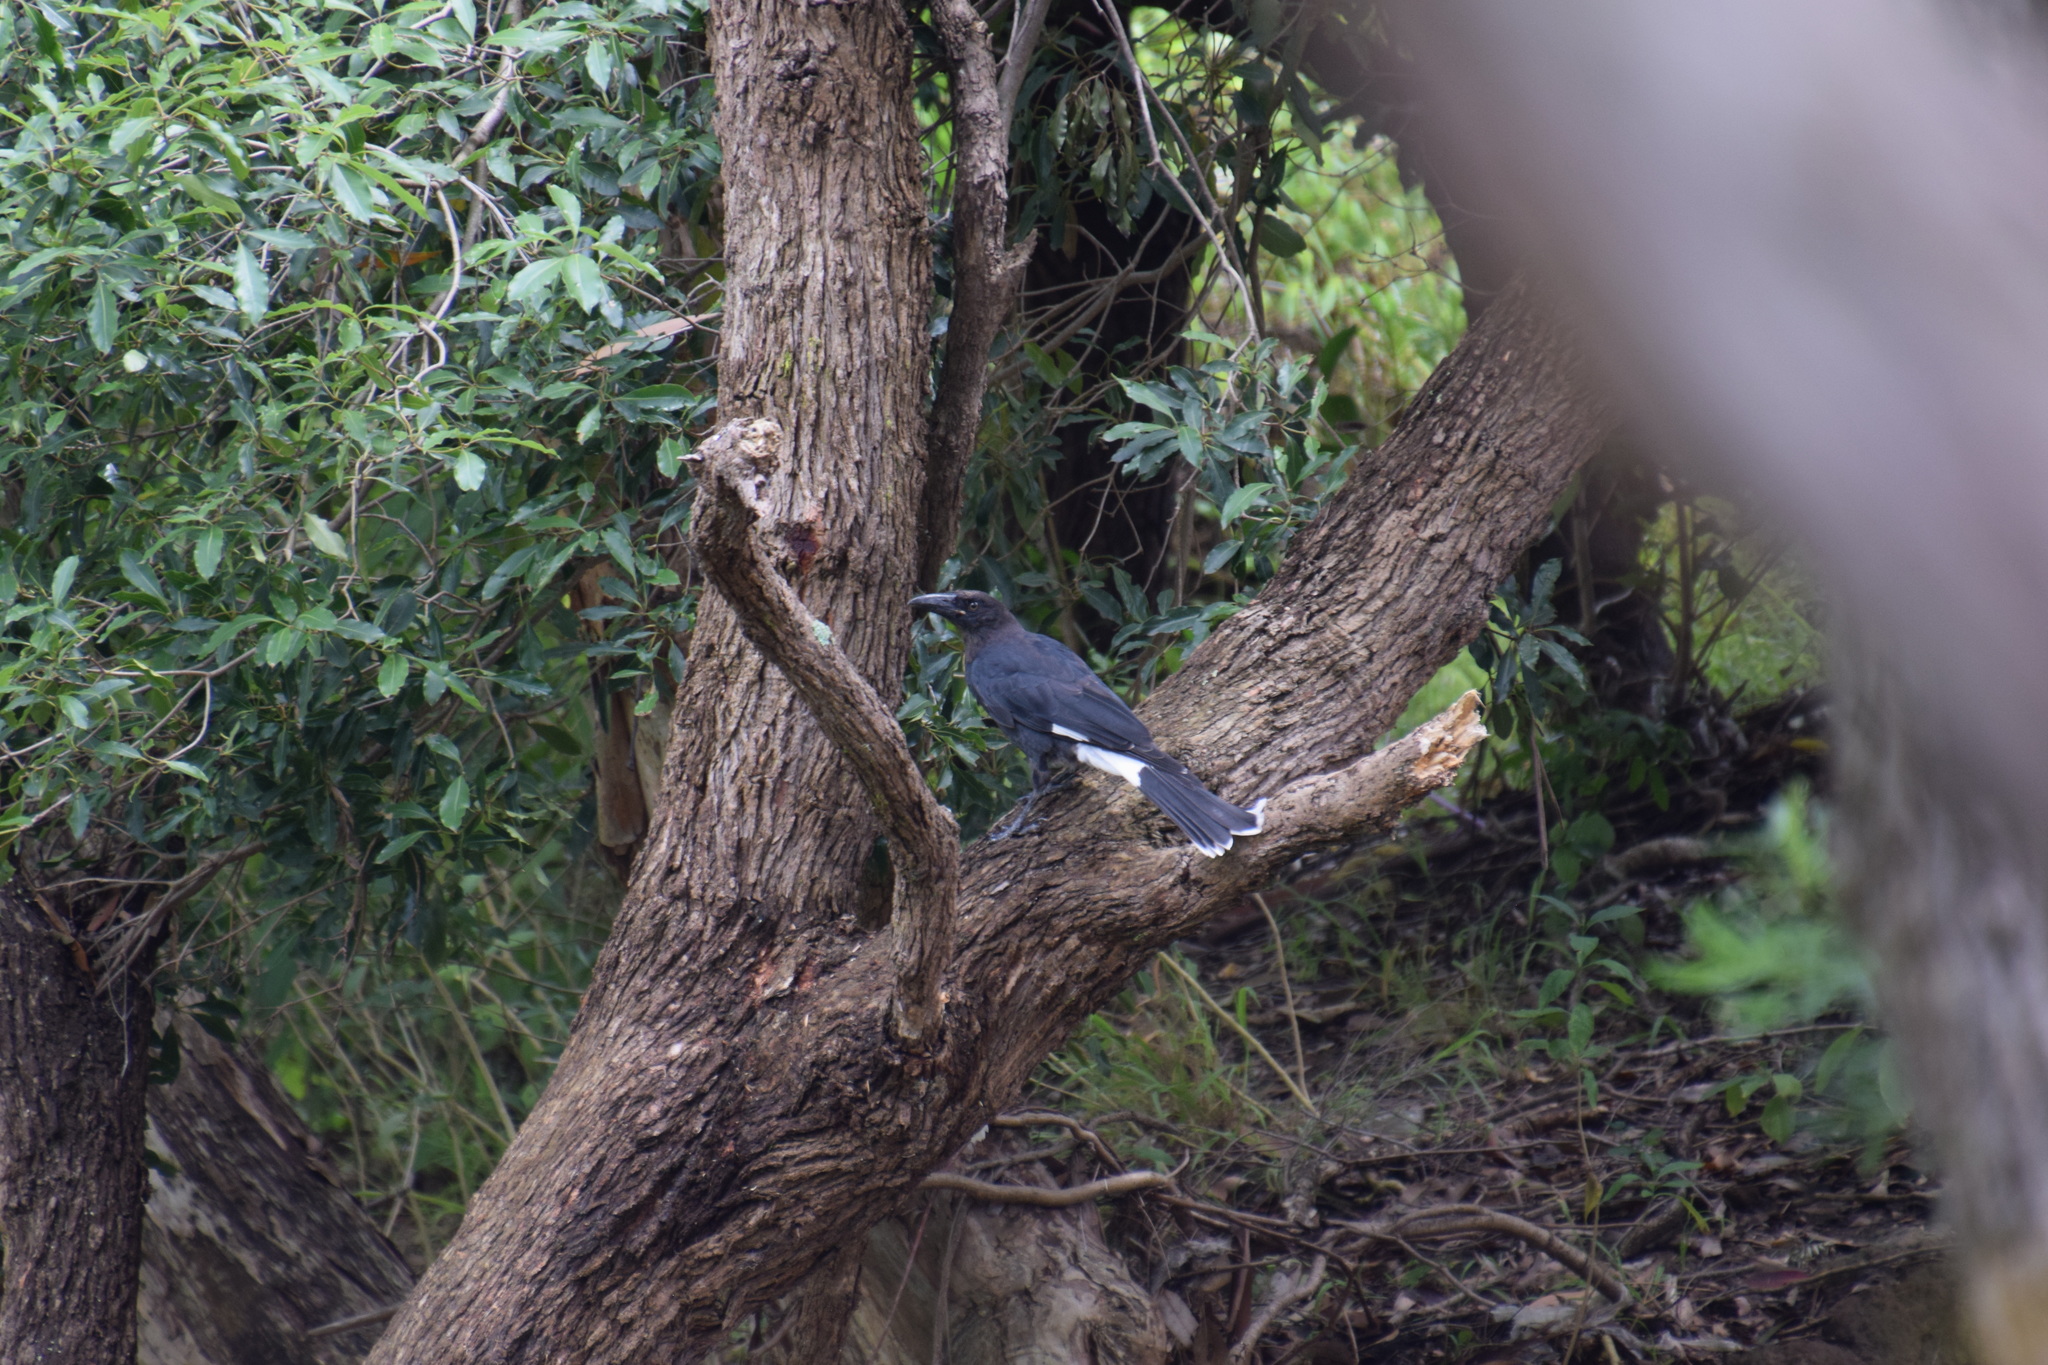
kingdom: Animalia
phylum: Chordata
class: Aves
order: Passeriformes
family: Cracticidae
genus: Strepera
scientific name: Strepera graculina
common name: Pied currawong
